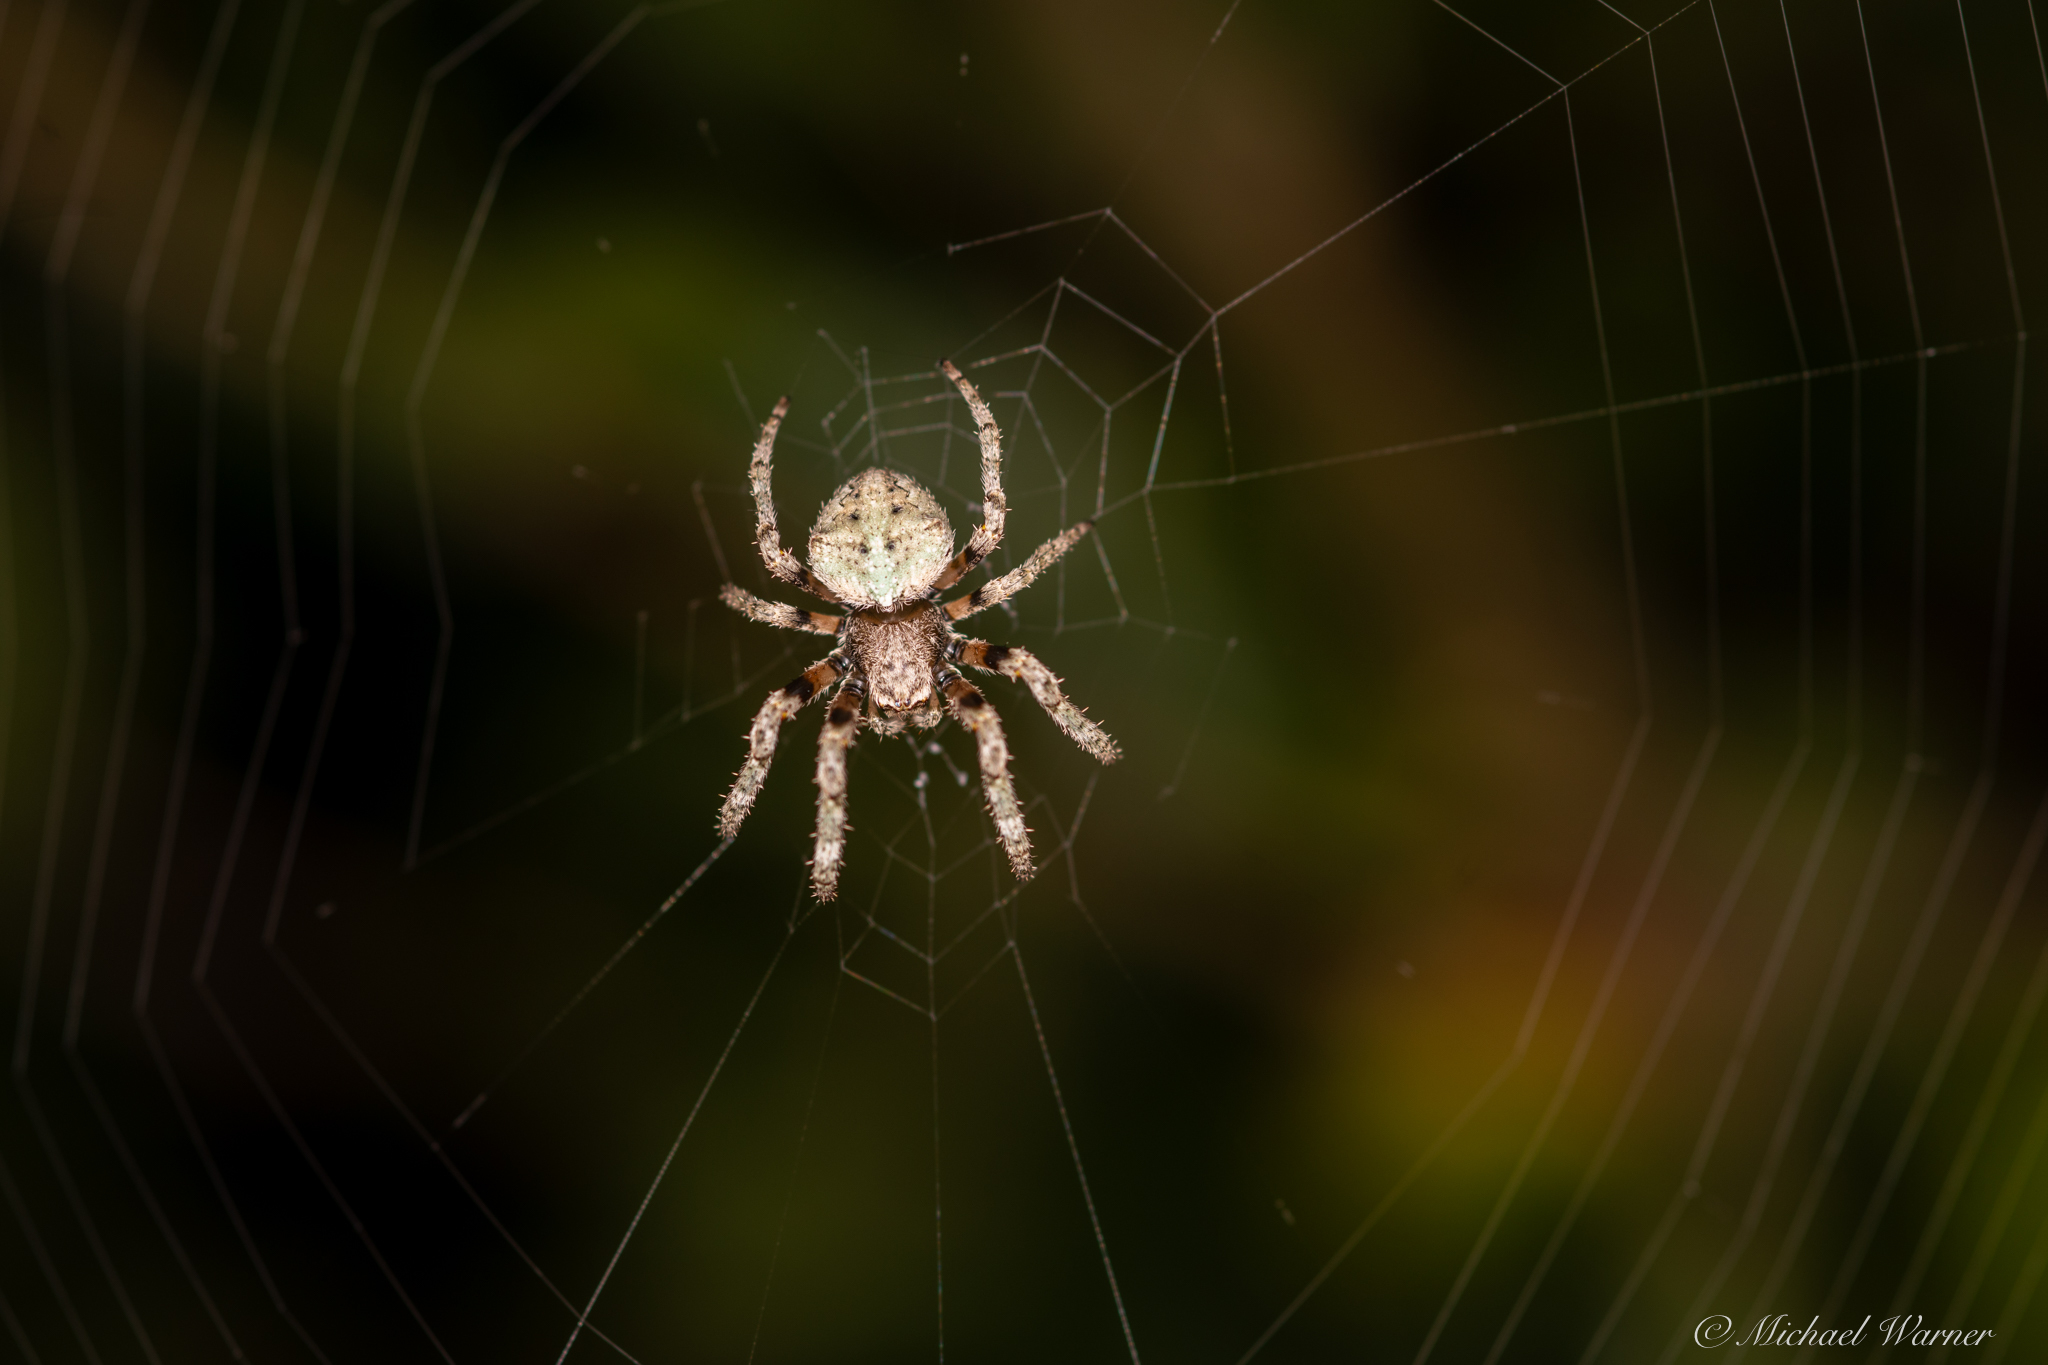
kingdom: Animalia
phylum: Arthropoda
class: Arachnida
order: Araneae
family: Araneidae
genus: Araneus
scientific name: Araneus andrewsi
